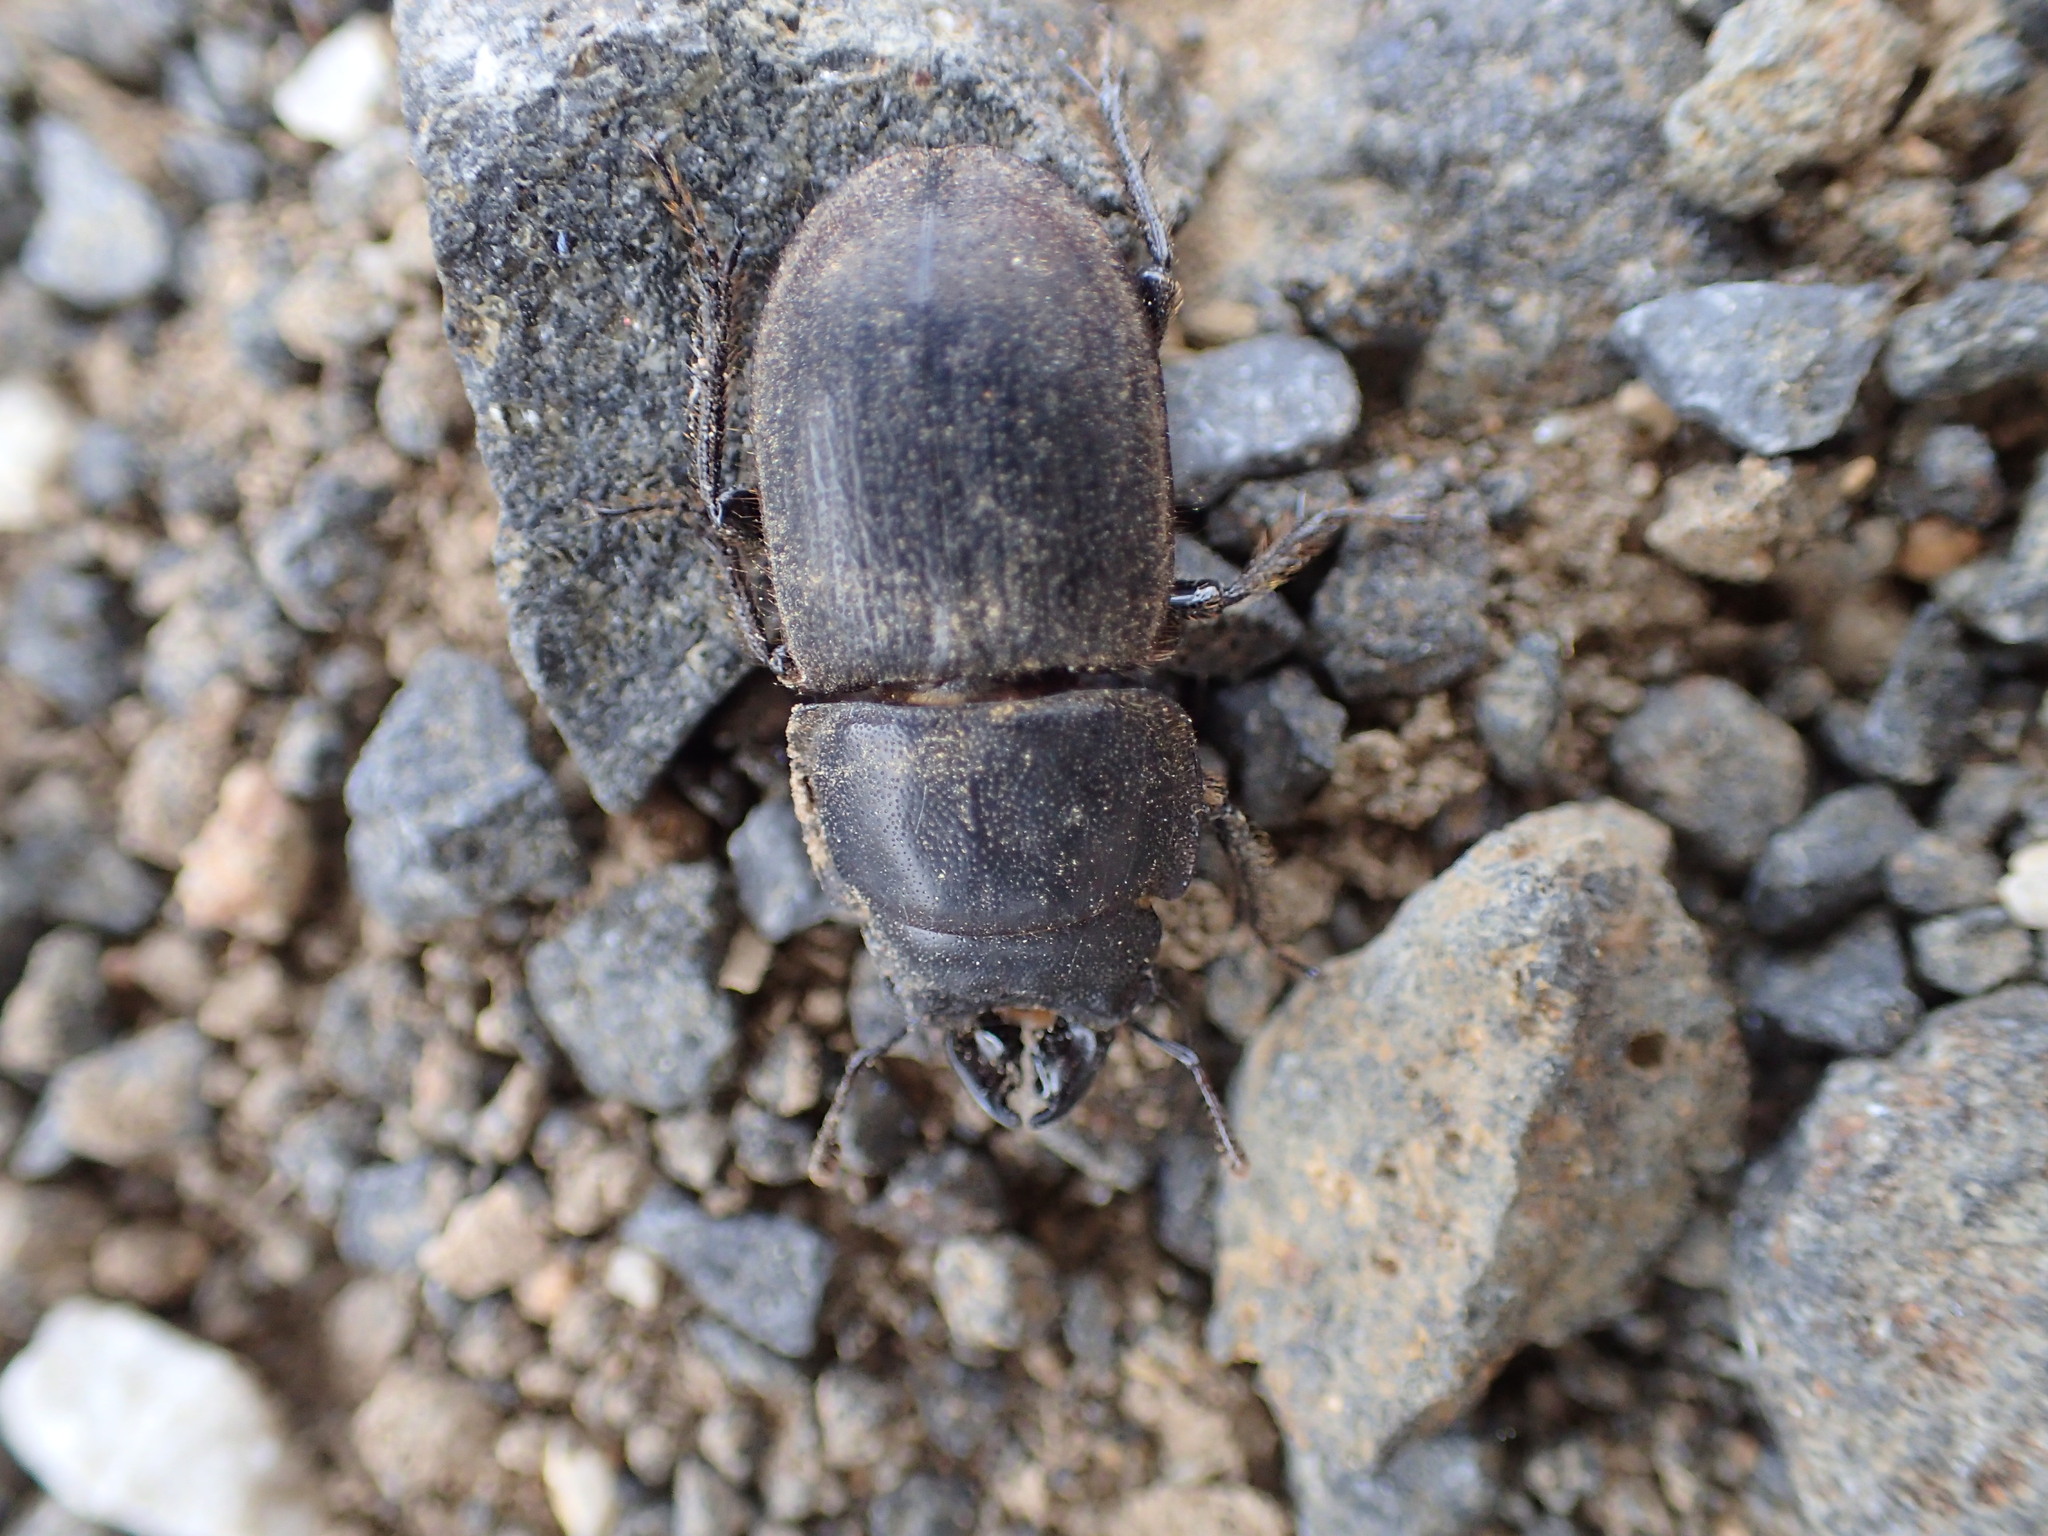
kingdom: Animalia
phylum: Arthropoda
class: Insecta
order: Coleoptera
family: Lucanidae
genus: Lissotes
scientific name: Lissotes obtusatus
